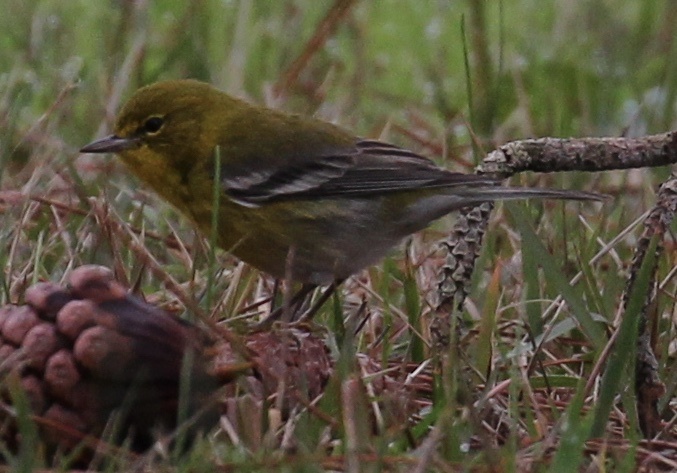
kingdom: Animalia
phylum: Chordata
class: Aves
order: Passeriformes
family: Parulidae
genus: Setophaga
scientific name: Setophaga pinus
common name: Pine warbler
